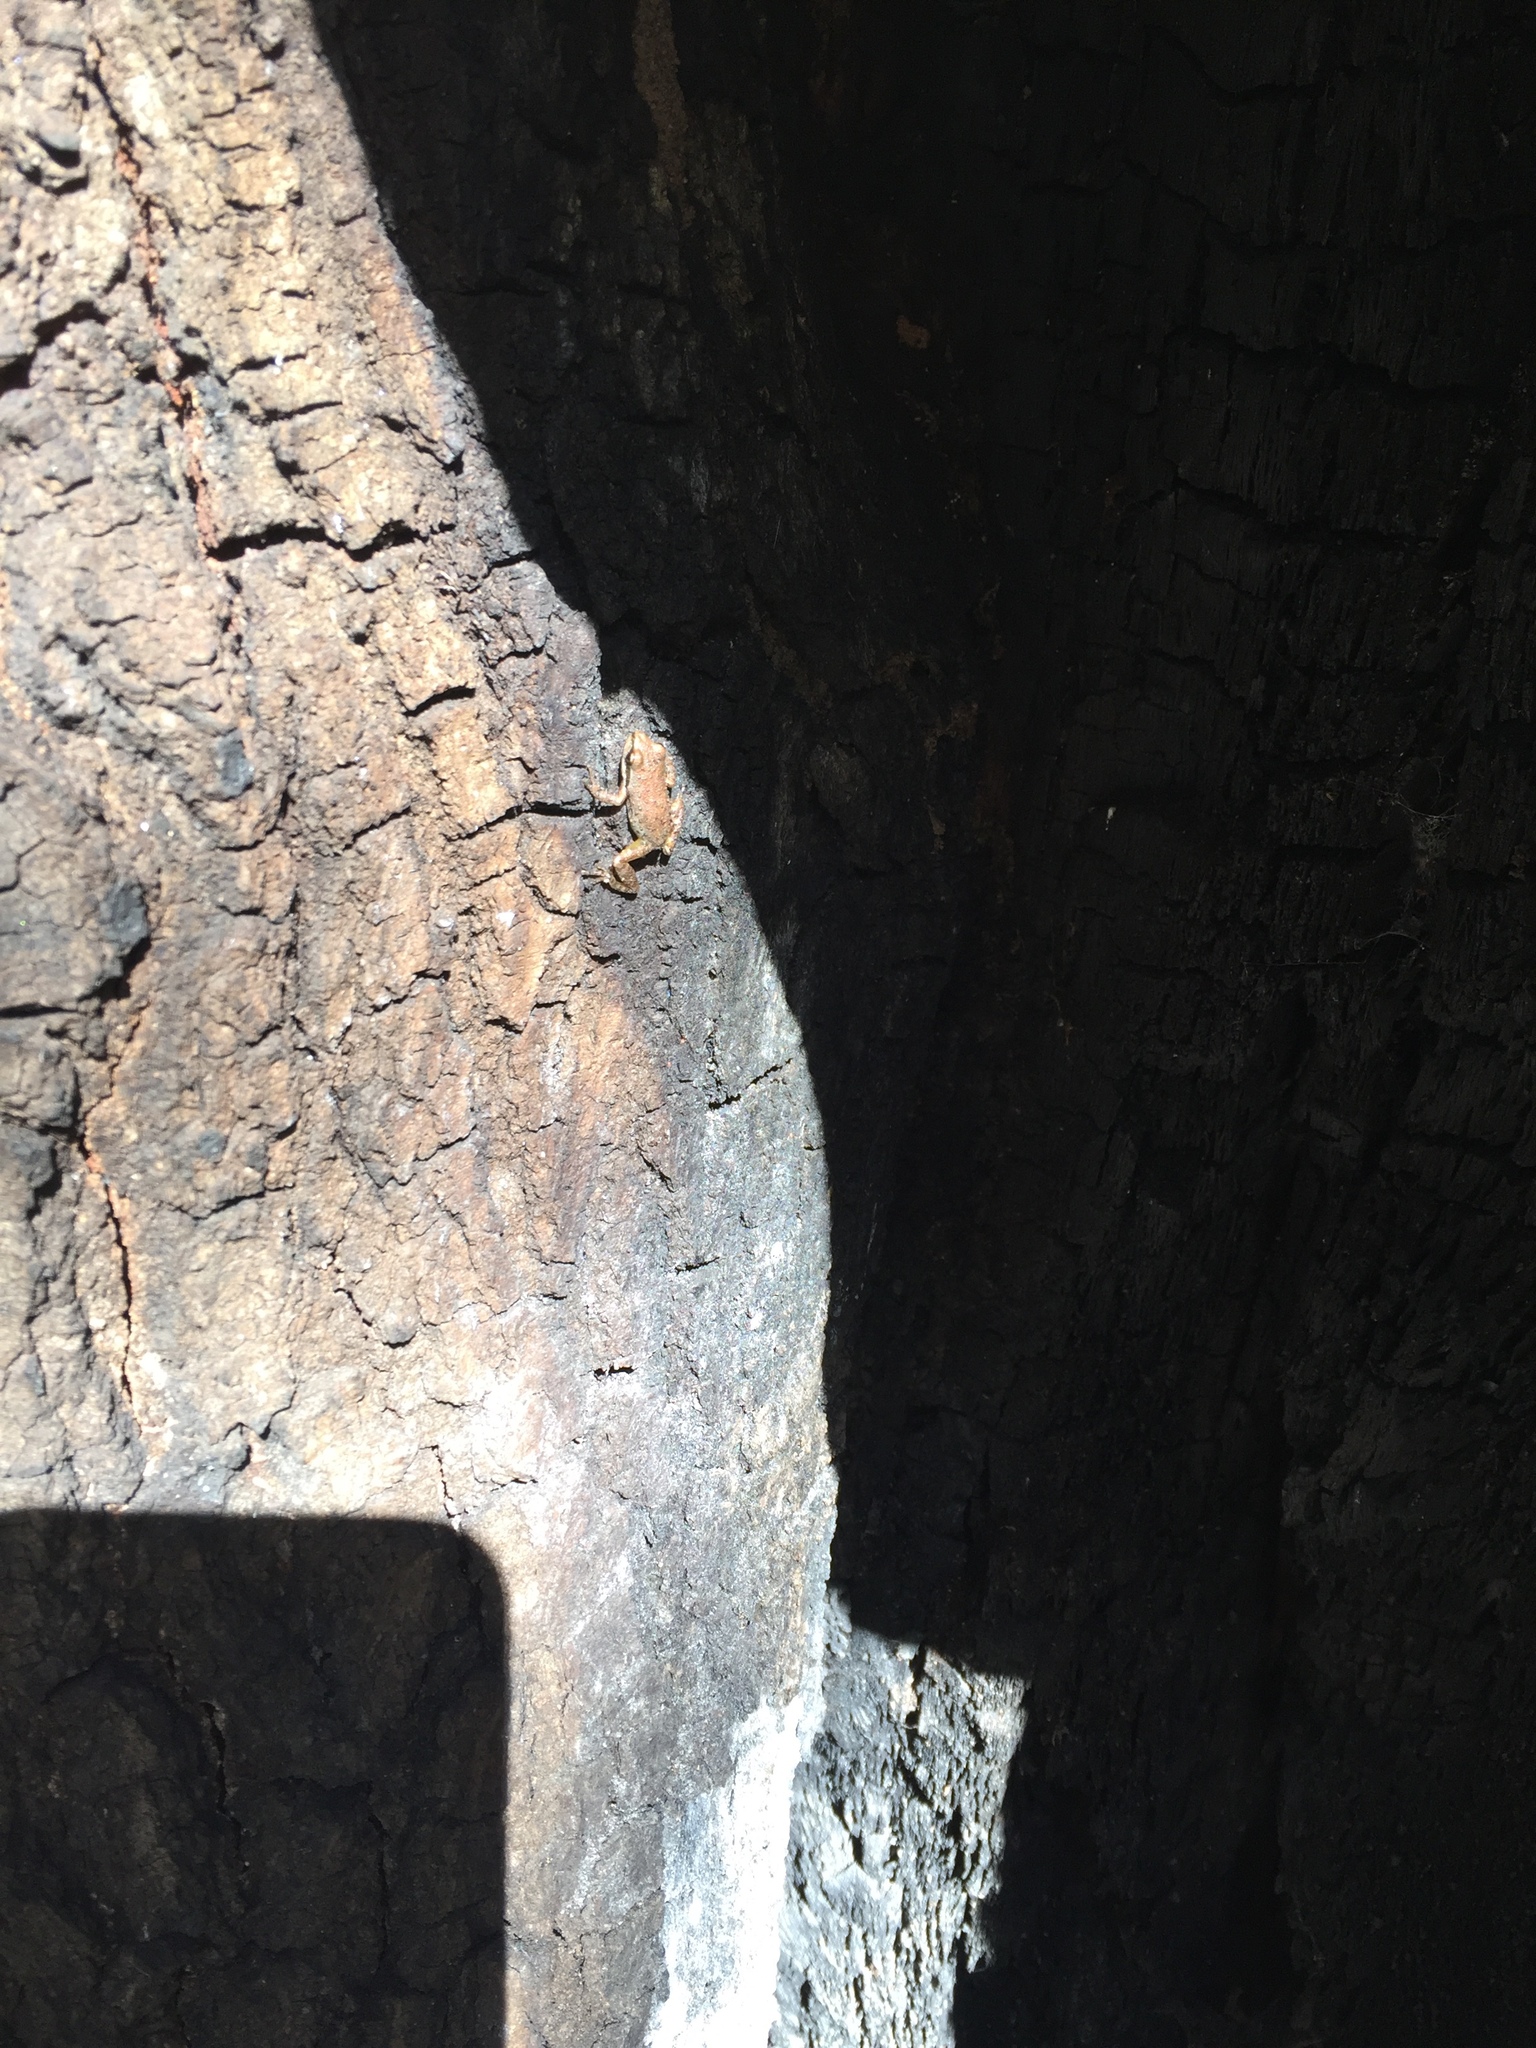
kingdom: Animalia
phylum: Chordata
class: Amphibia
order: Anura
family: Hylidae
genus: Pseudacris
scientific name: Pseudacris regilla
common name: Pacific chorus frog
